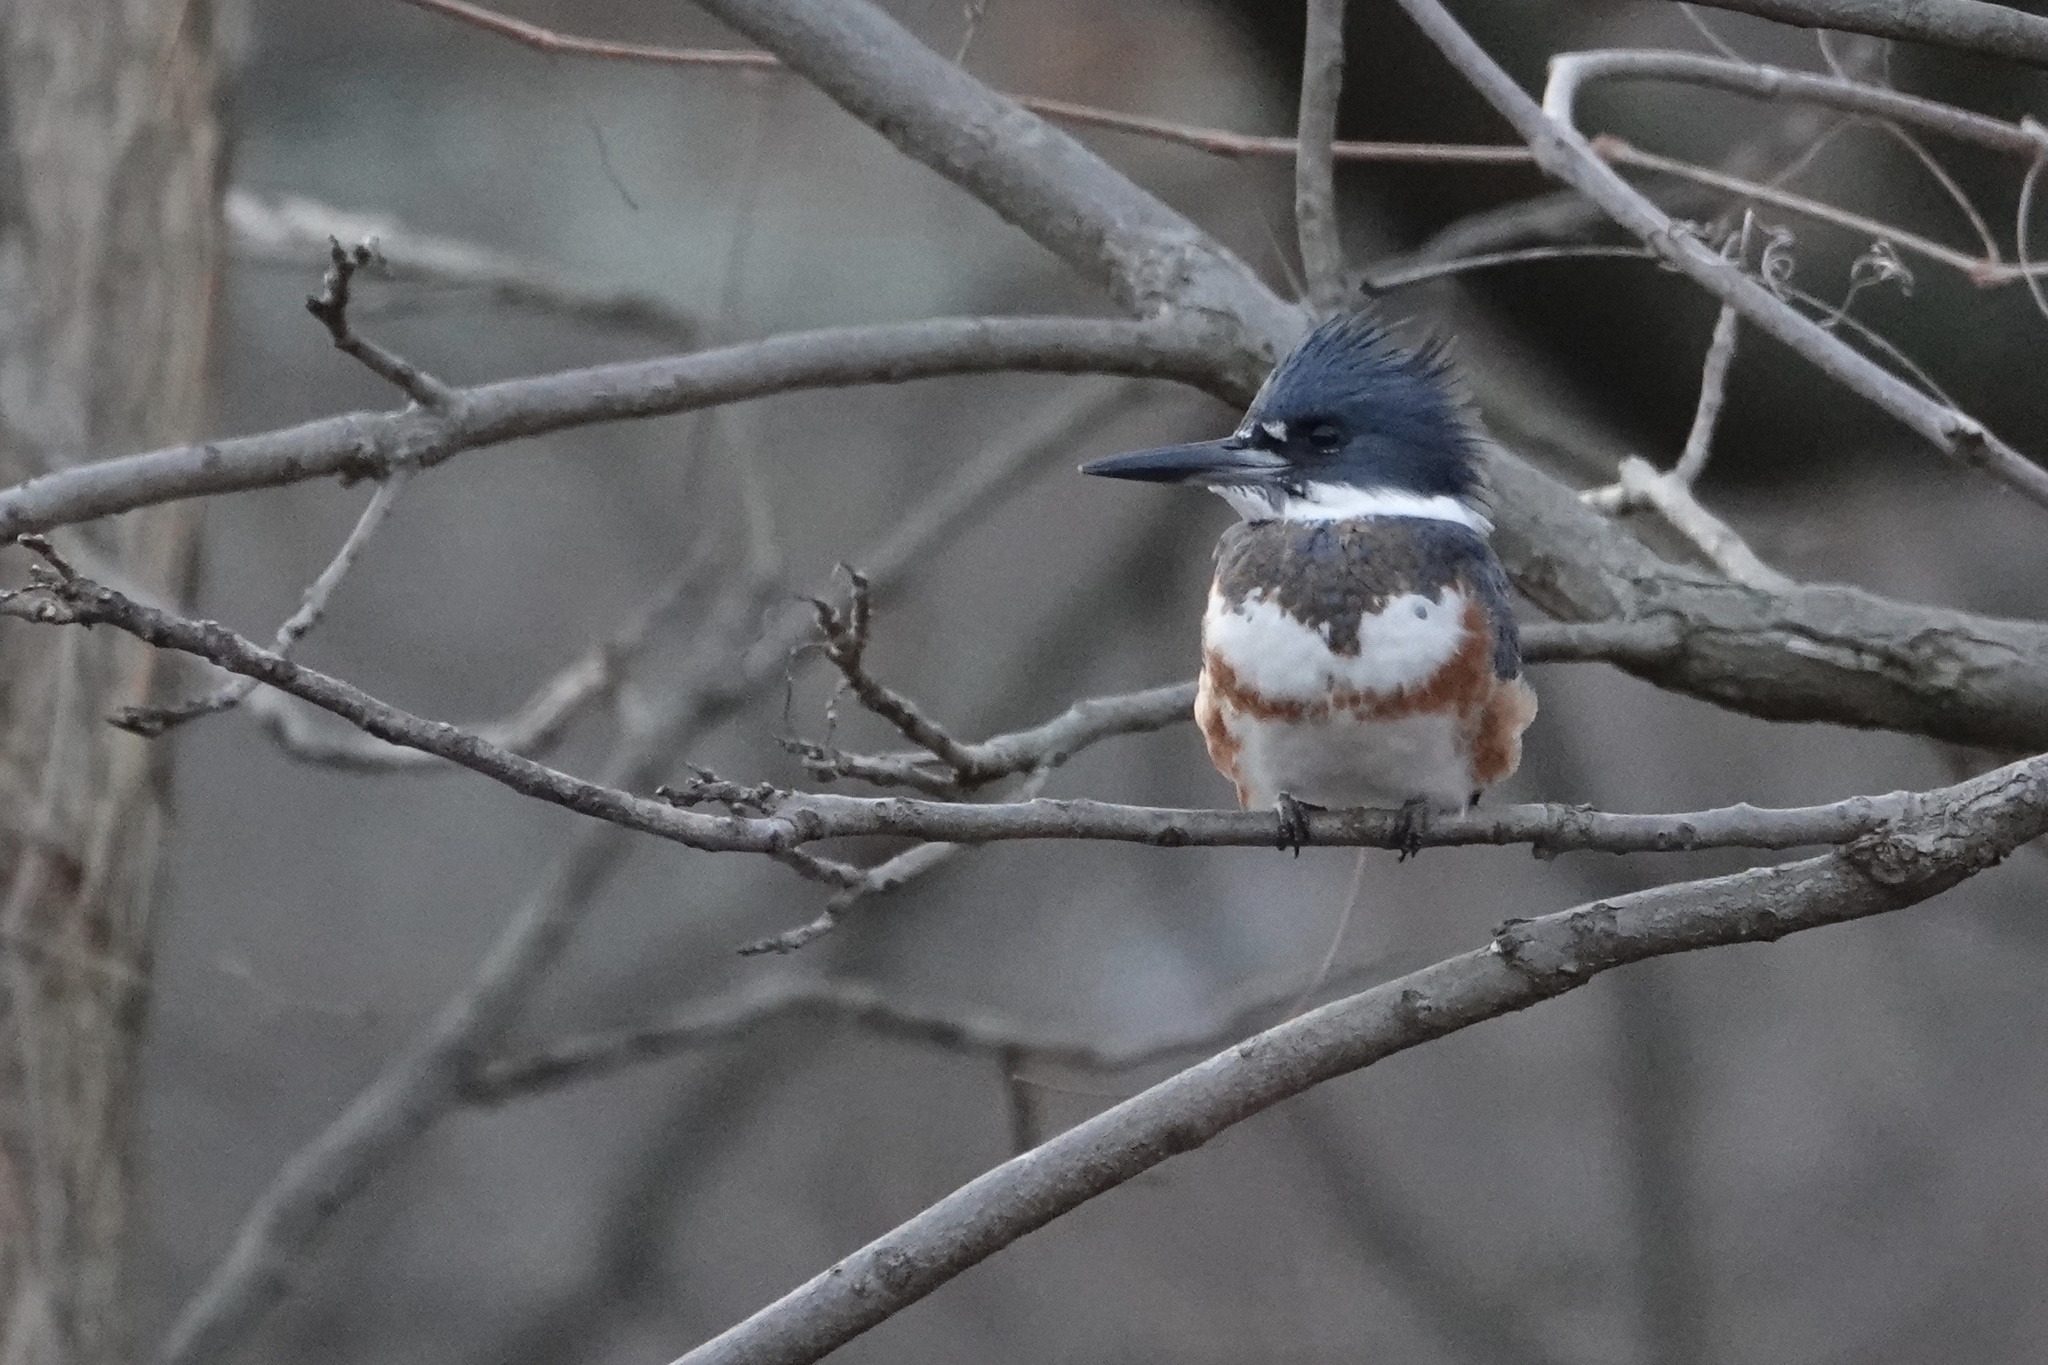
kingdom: Animalia
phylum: Chordata
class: Aves
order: Coraciiformes
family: Alcedinidae
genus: Megaceryle
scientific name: Megaceryle alcyon
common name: Belted kingfisher
